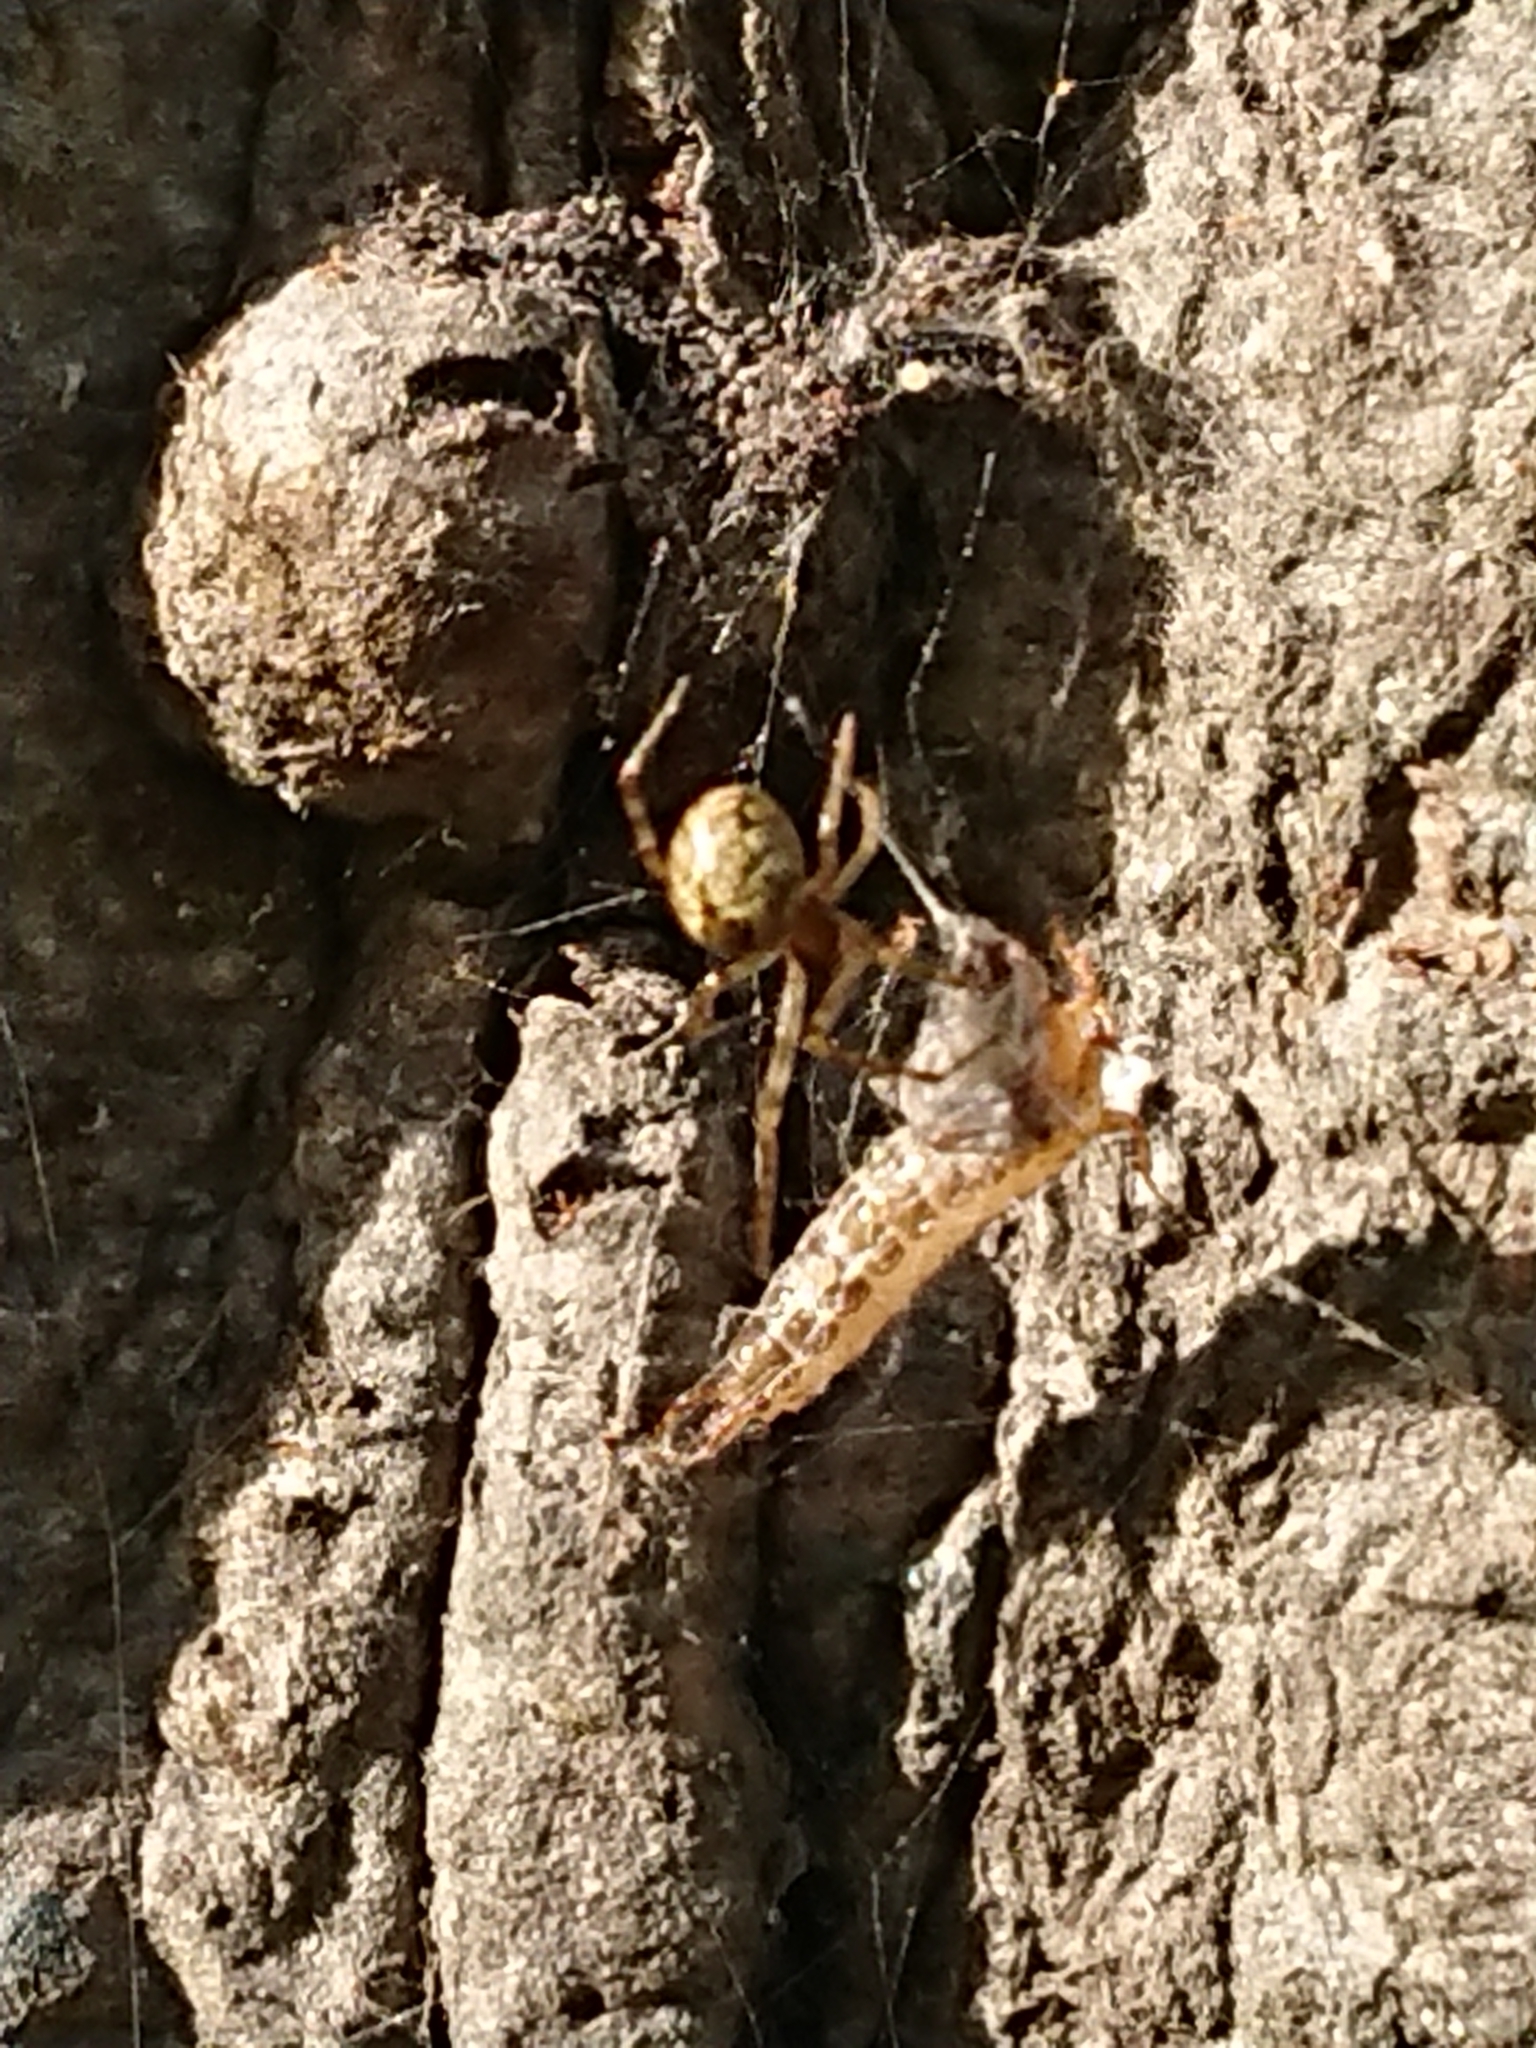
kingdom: Animalia
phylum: Arthropoda
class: Arachnida
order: Araneae
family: Theridiidae
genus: Cryptachaea
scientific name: Cryptachaea veruculata
